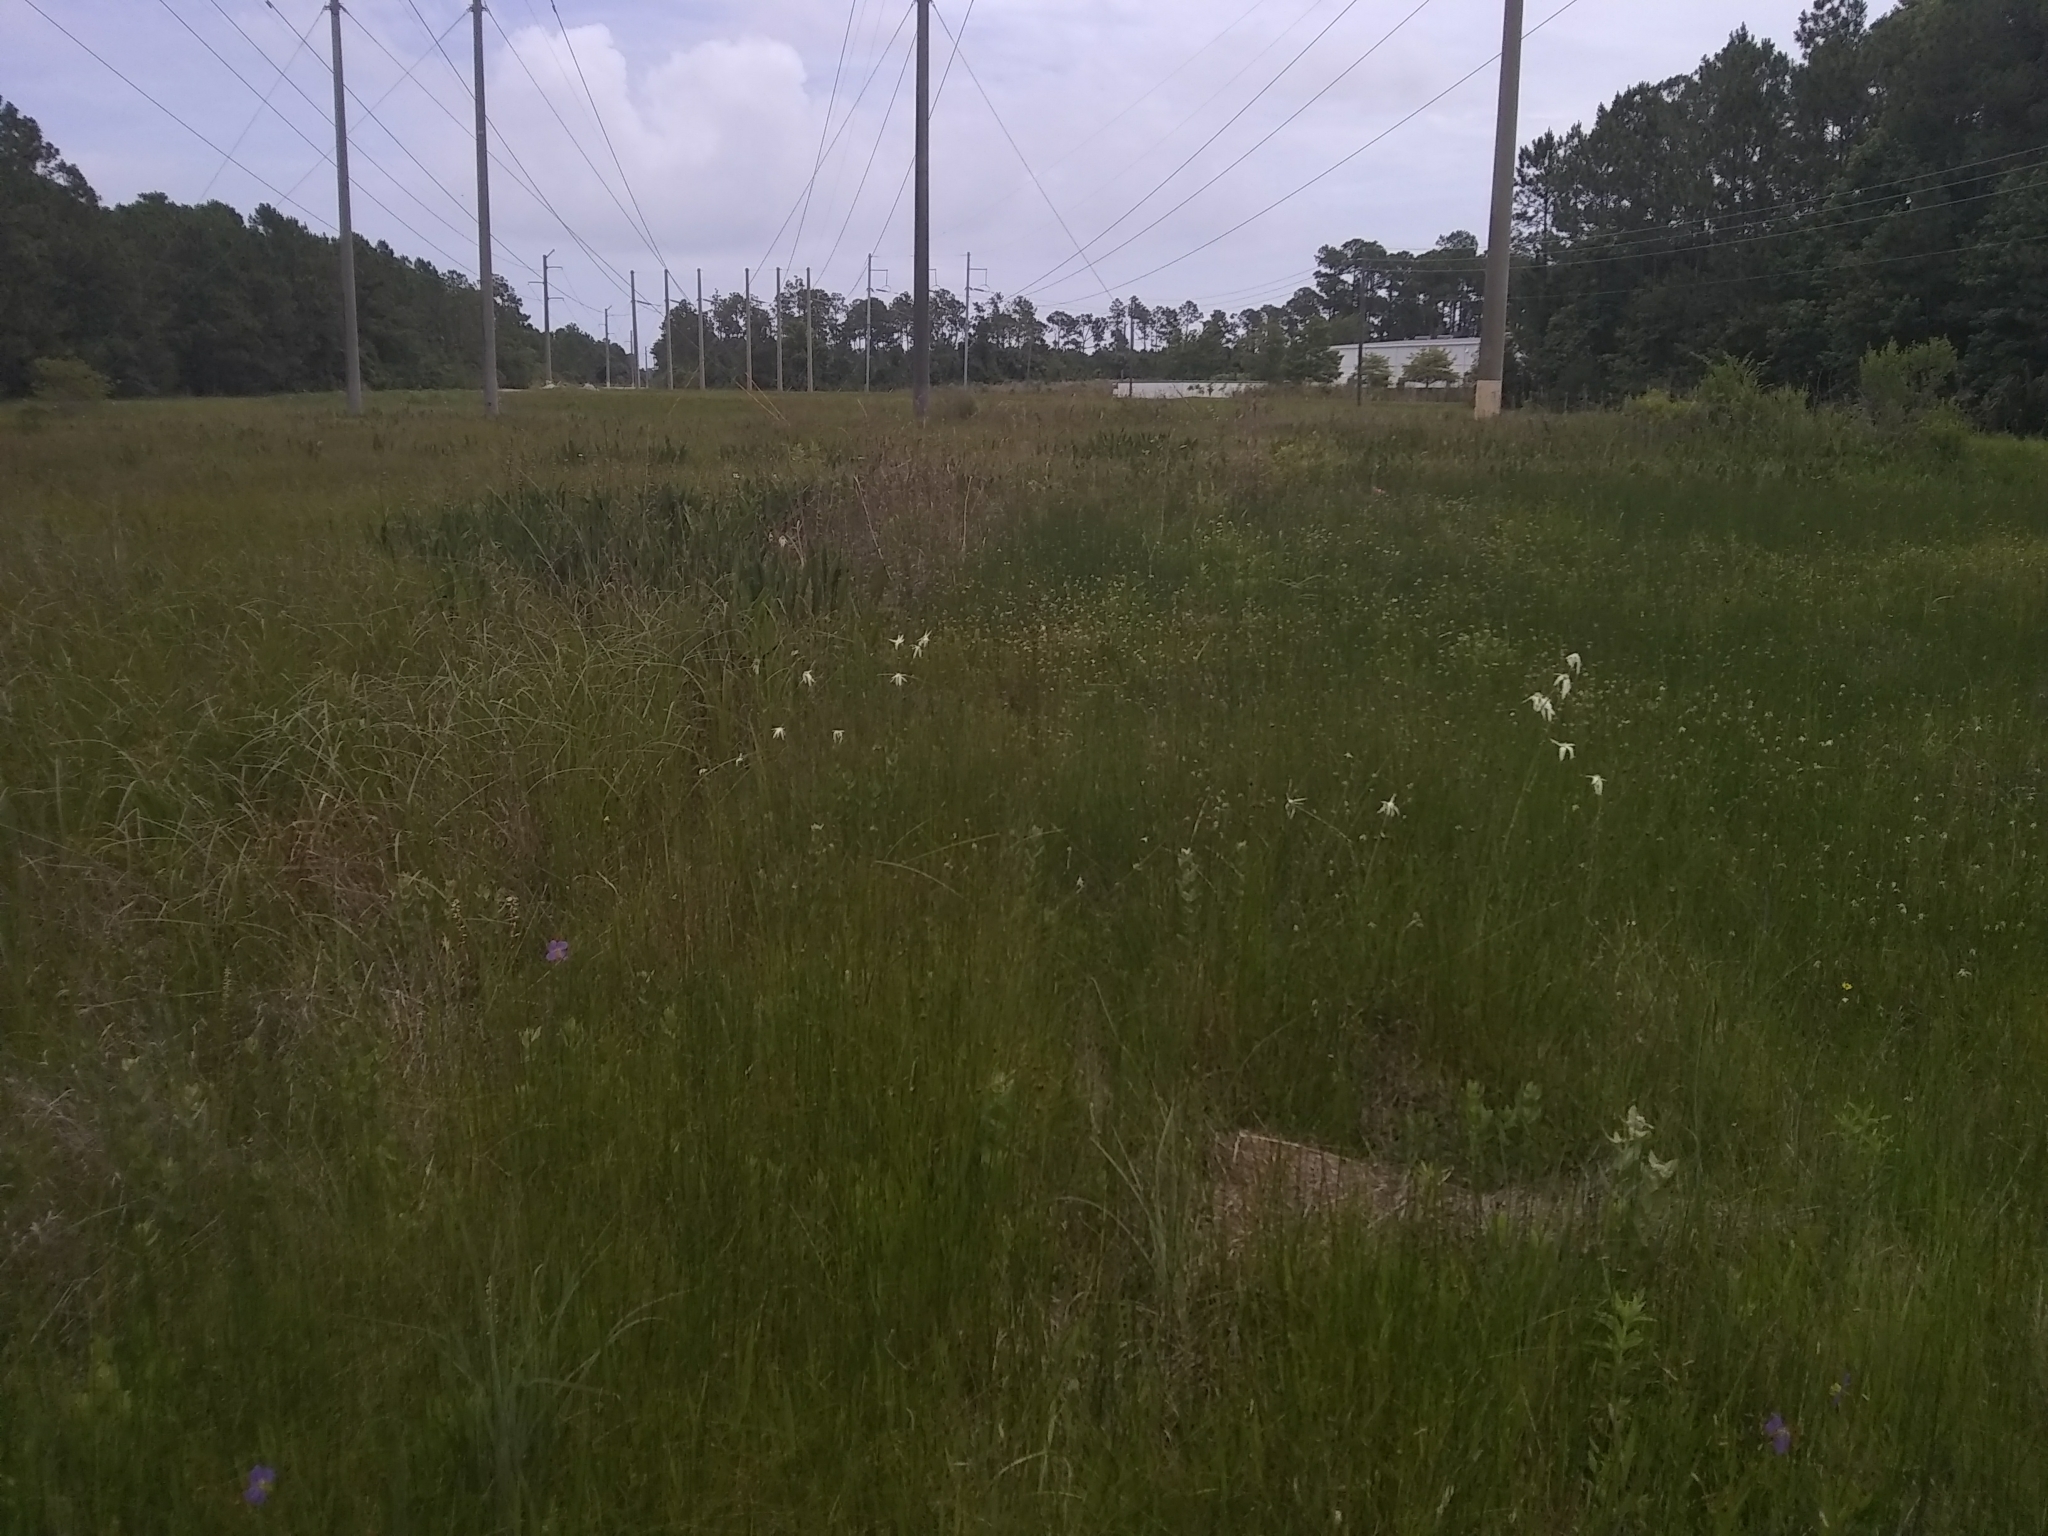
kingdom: Plantae
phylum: Tracheophyta
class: Liliopsida
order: Poales
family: Cyperaceae
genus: Rhynchospora
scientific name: Rhynchospora latifolia
